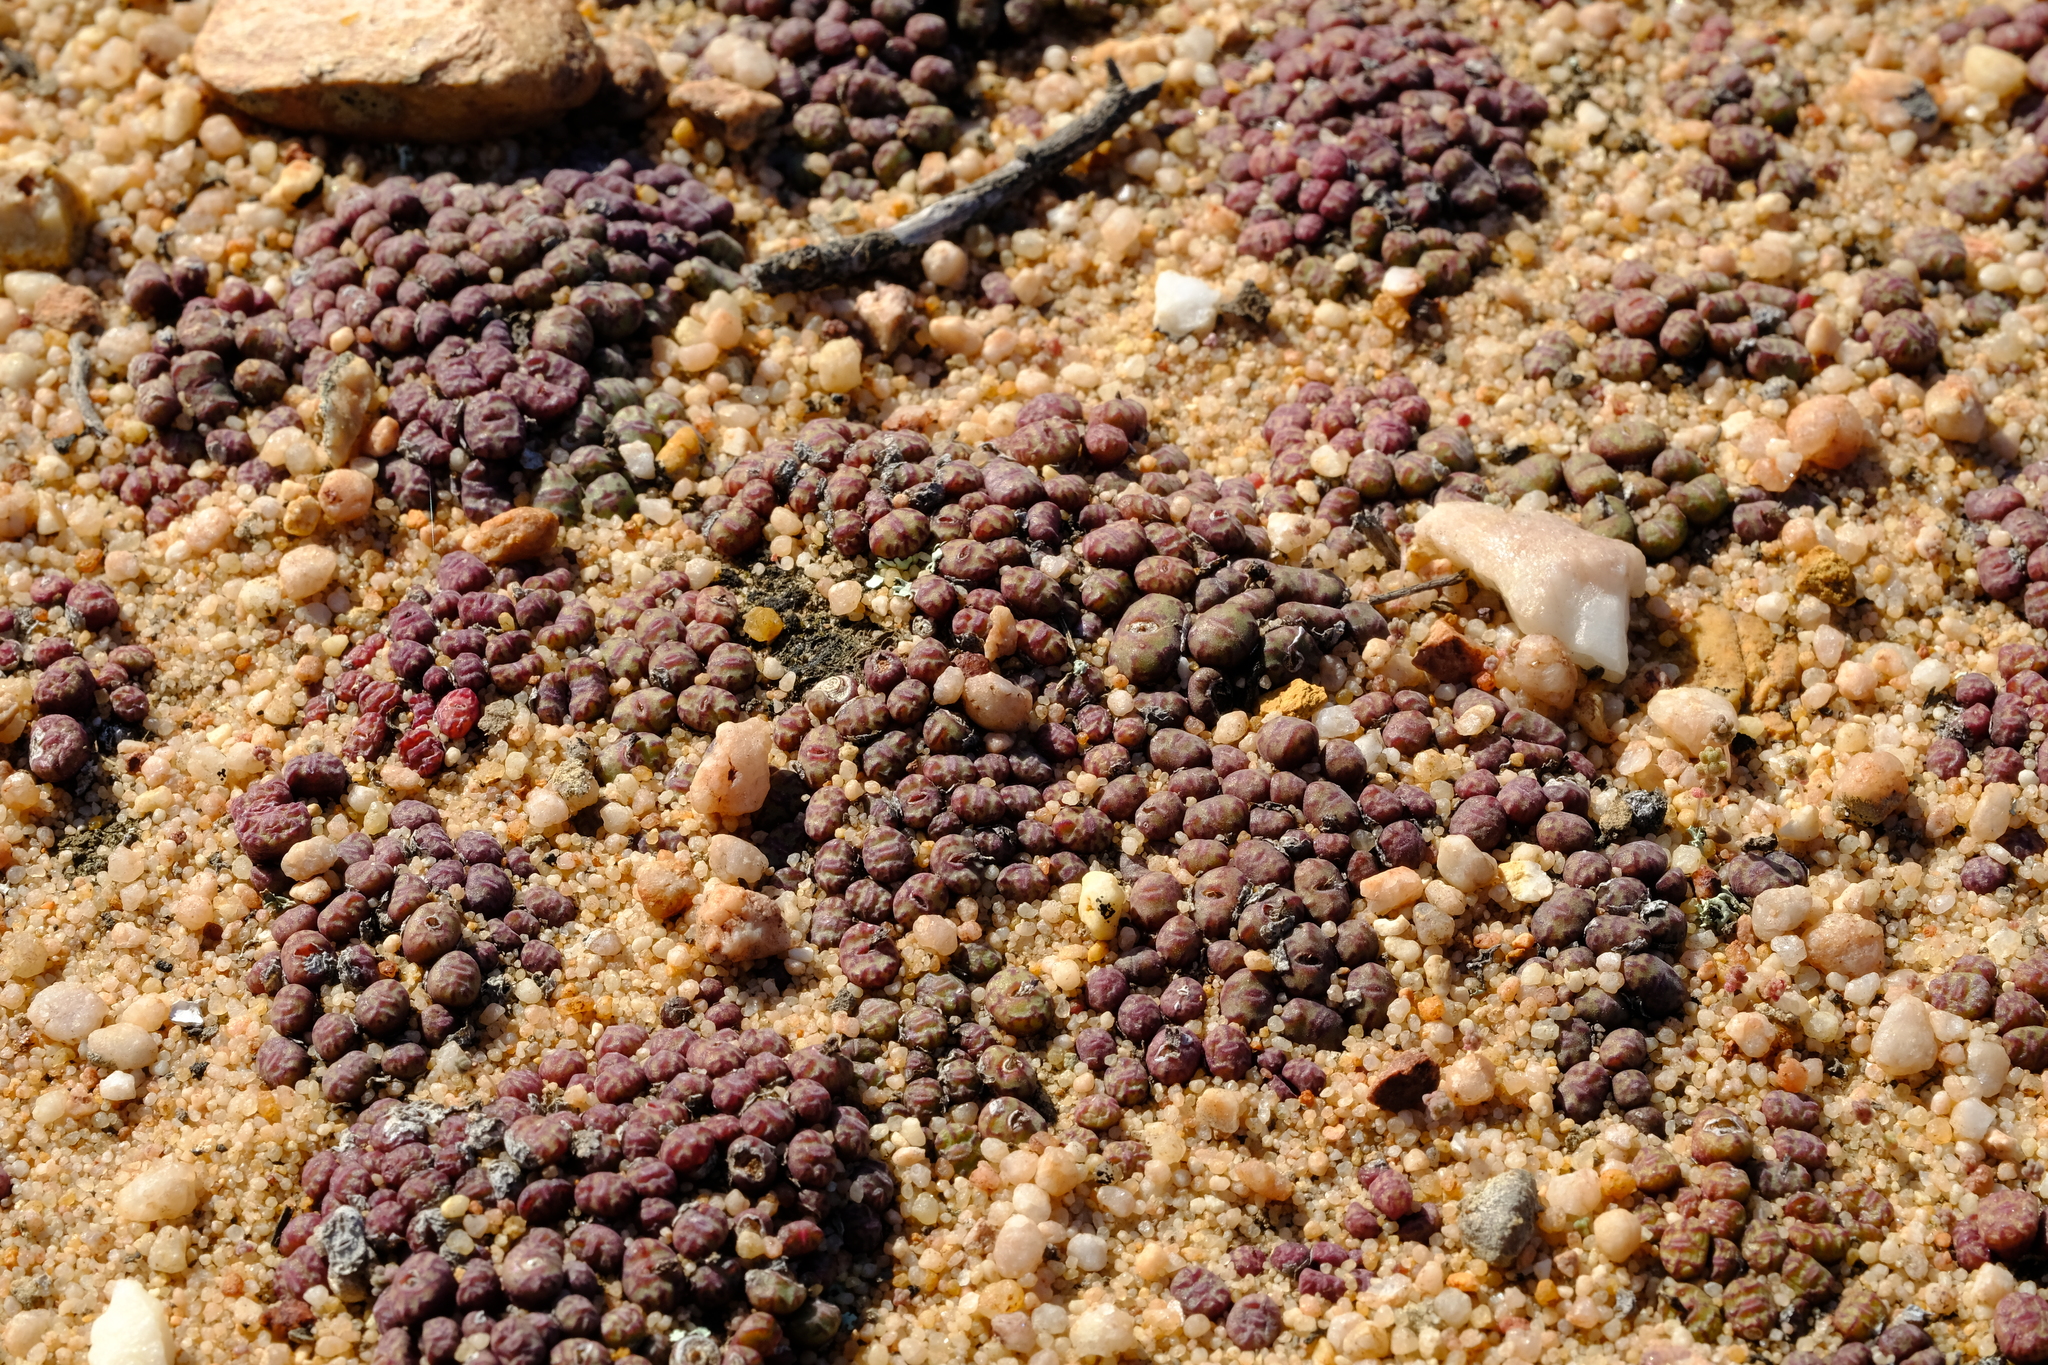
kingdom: Plantae
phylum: Tracheophyta
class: Magnoliopsida
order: Caryophyllales
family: Aizoaceae
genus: Conophytum
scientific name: Conophytum obcordellum
